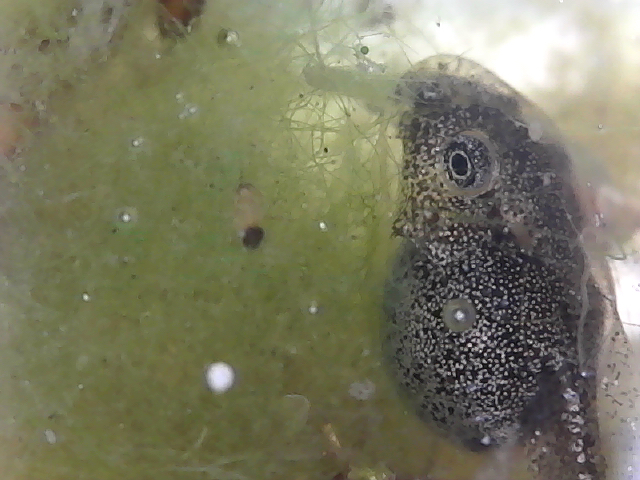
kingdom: Animalia
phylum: Chordata
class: Amphibia
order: Anura
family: Hylidae
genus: Pseudacris
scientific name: Pseudacris regilla
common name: Pacific chorus frog
